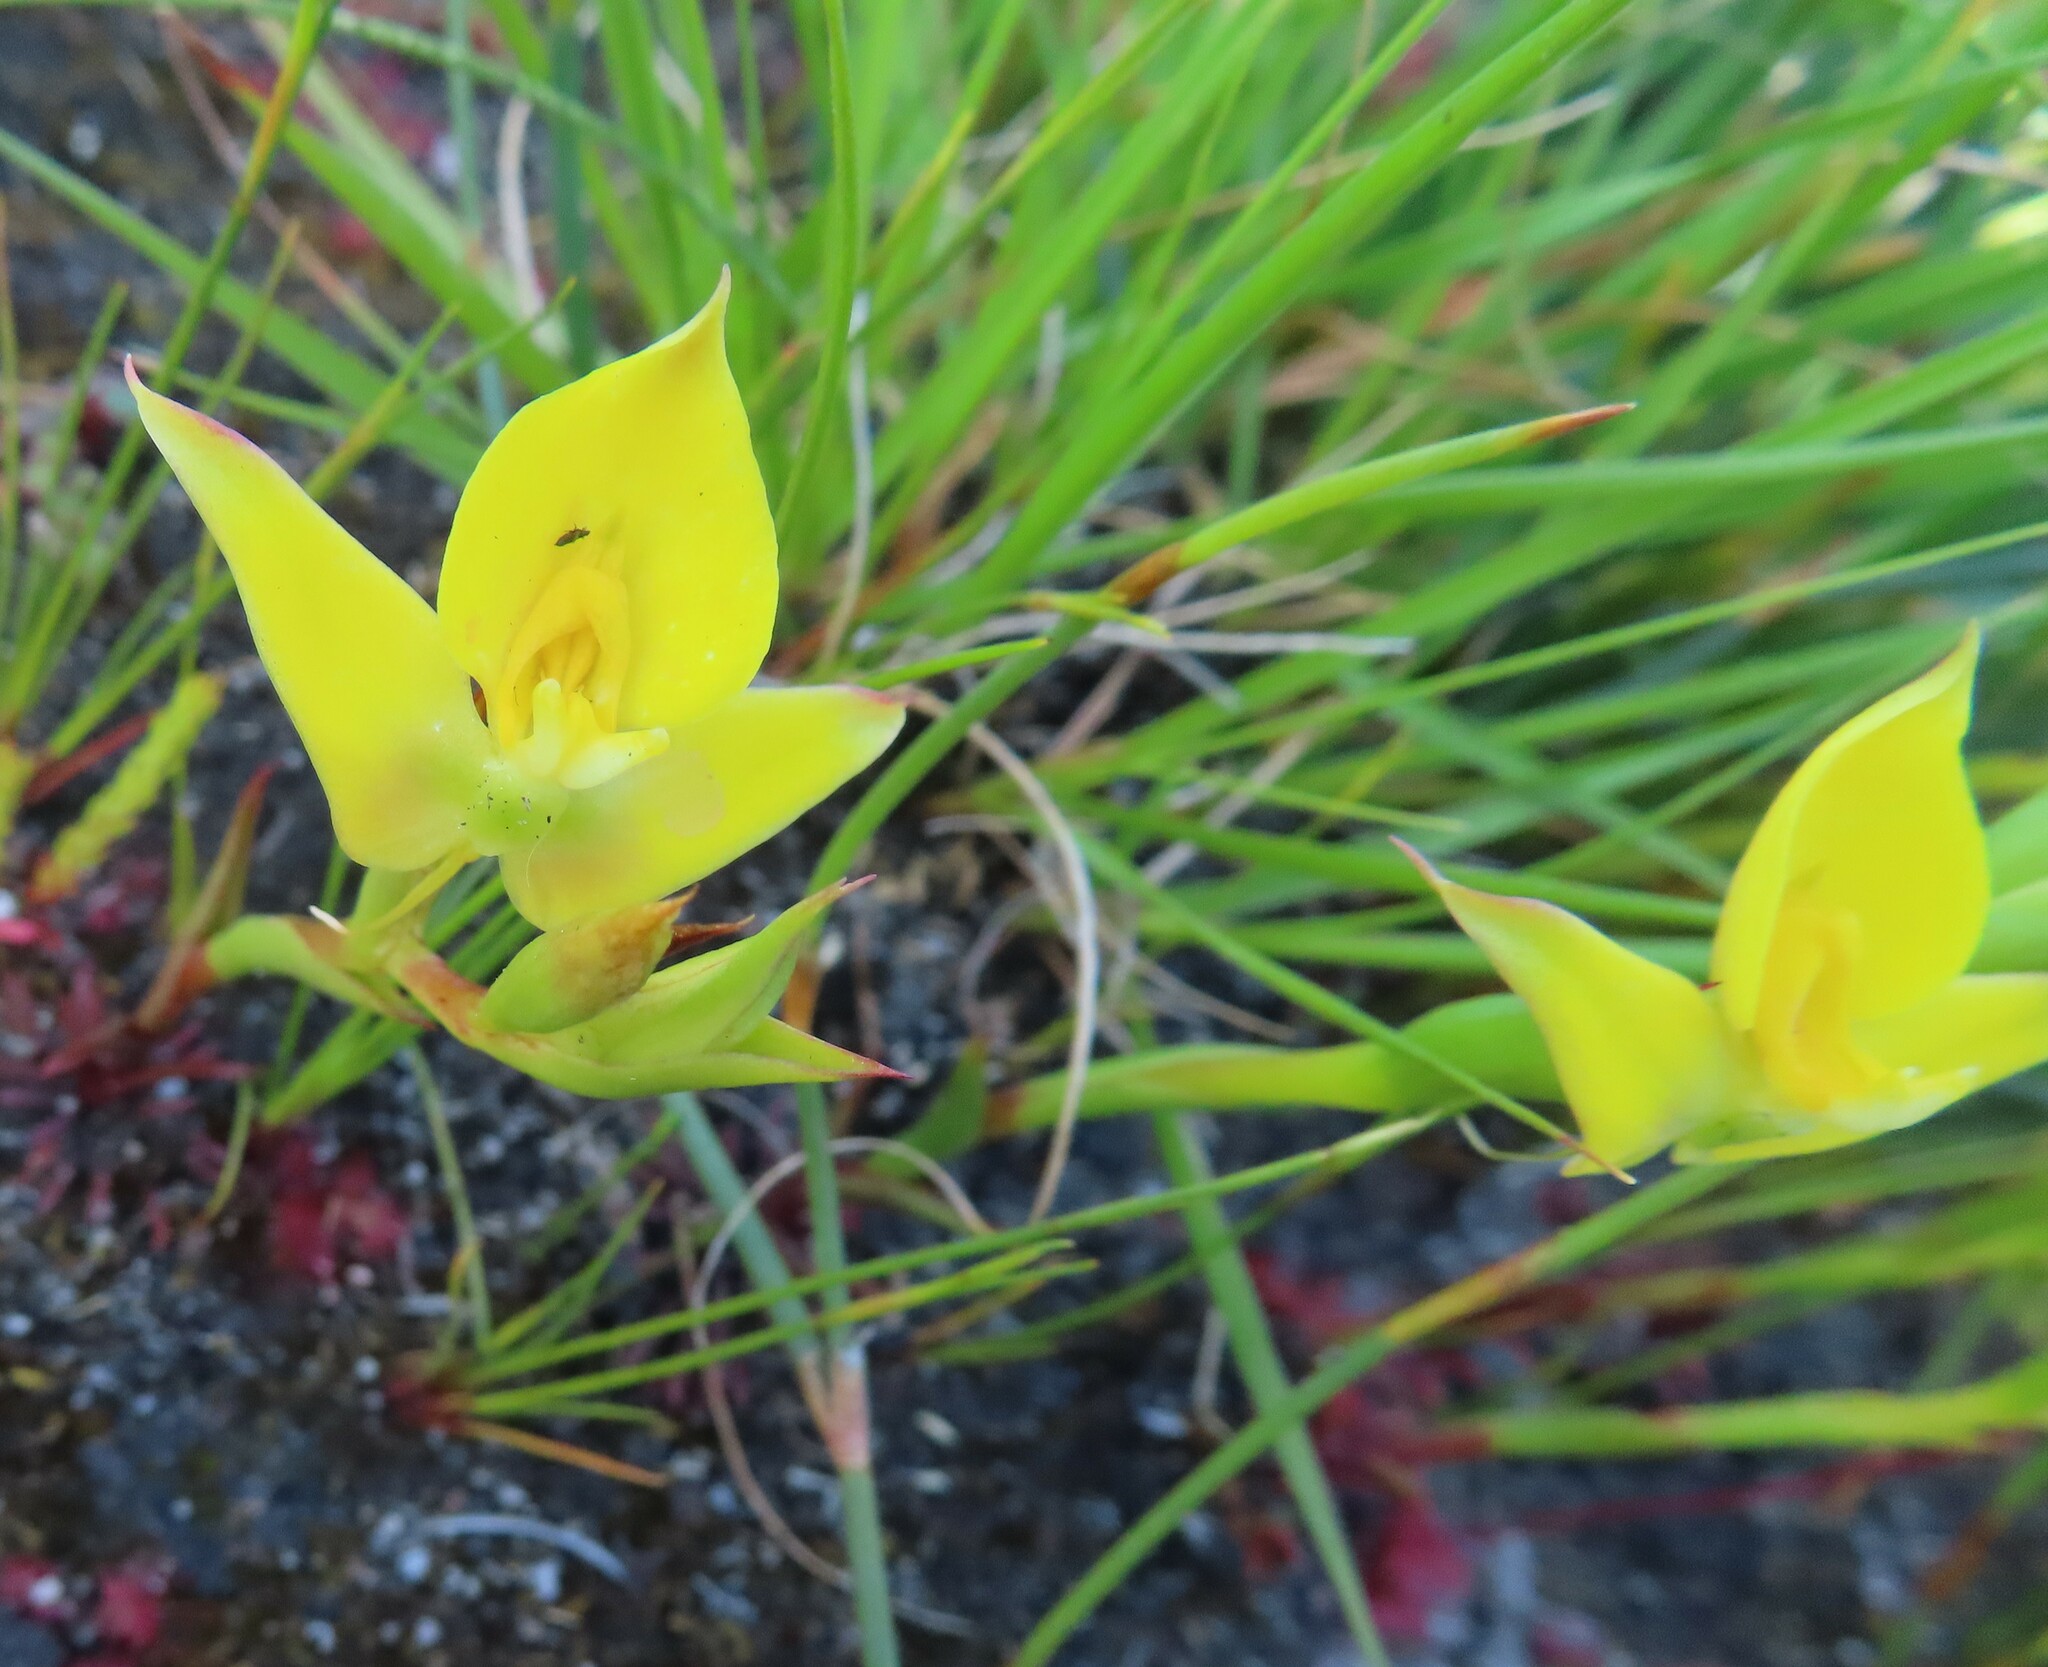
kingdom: Plantae
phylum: Tracheophyta
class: Liliopsida
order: Asparagales
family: Orchidaceae
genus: Disa
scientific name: Disa tenuifolia
